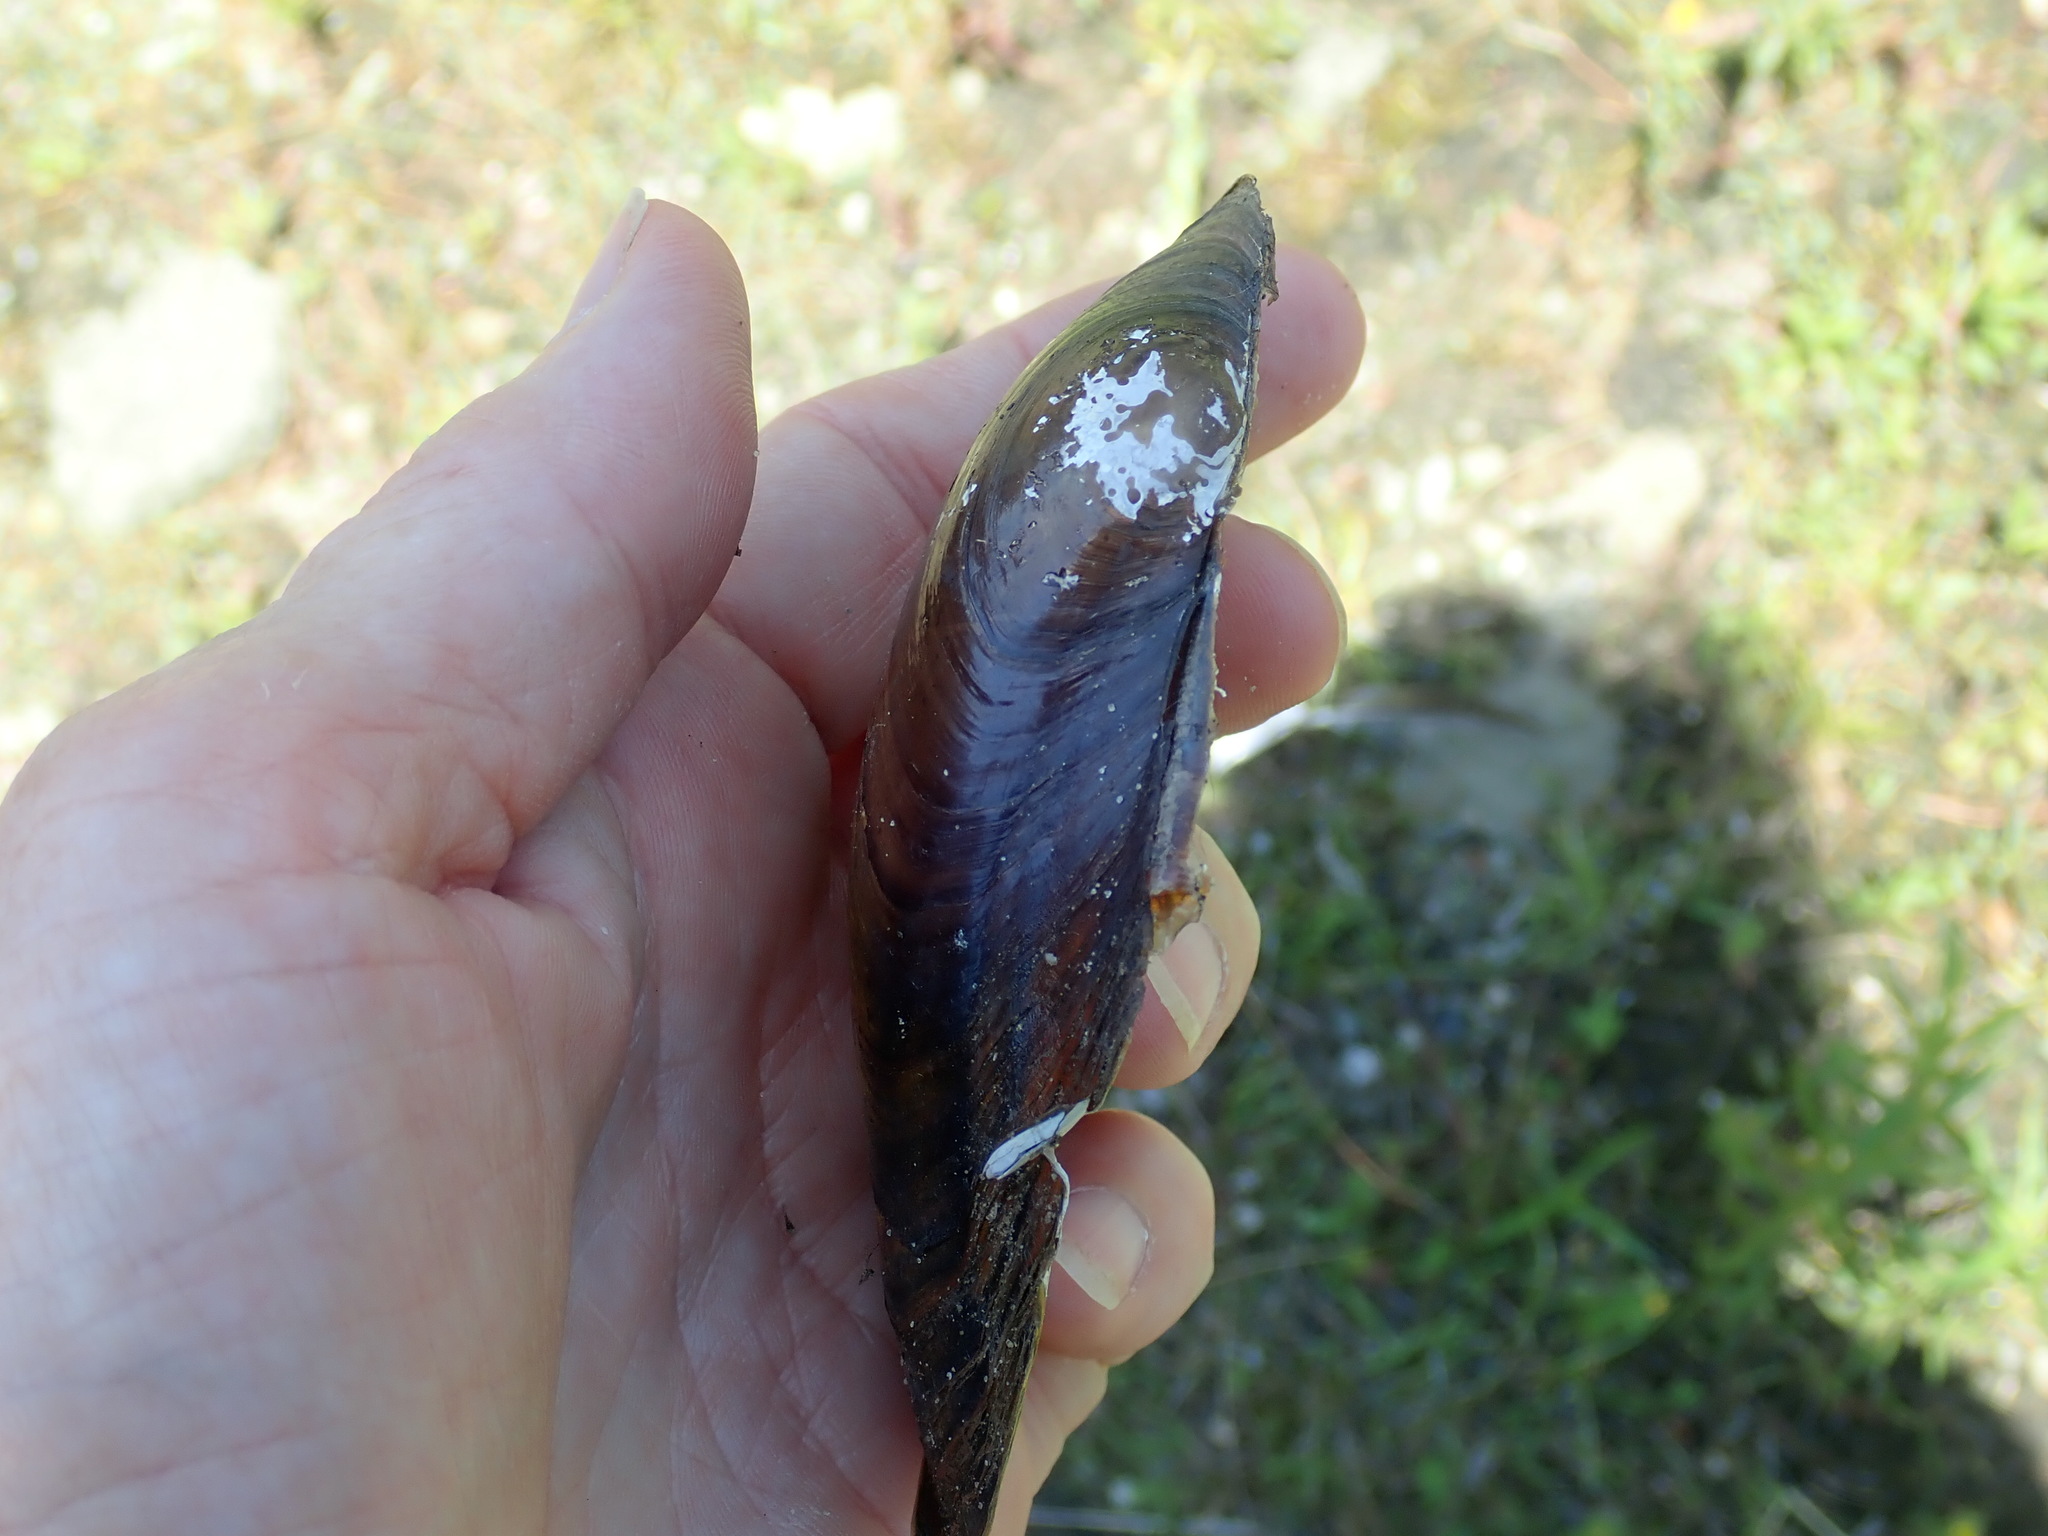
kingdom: Animalia
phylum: Mollusca
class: Bivalvia
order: Unionida
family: Unionidae
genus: Pyganodon
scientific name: Pyganodon cataracta
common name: Eastern floater
